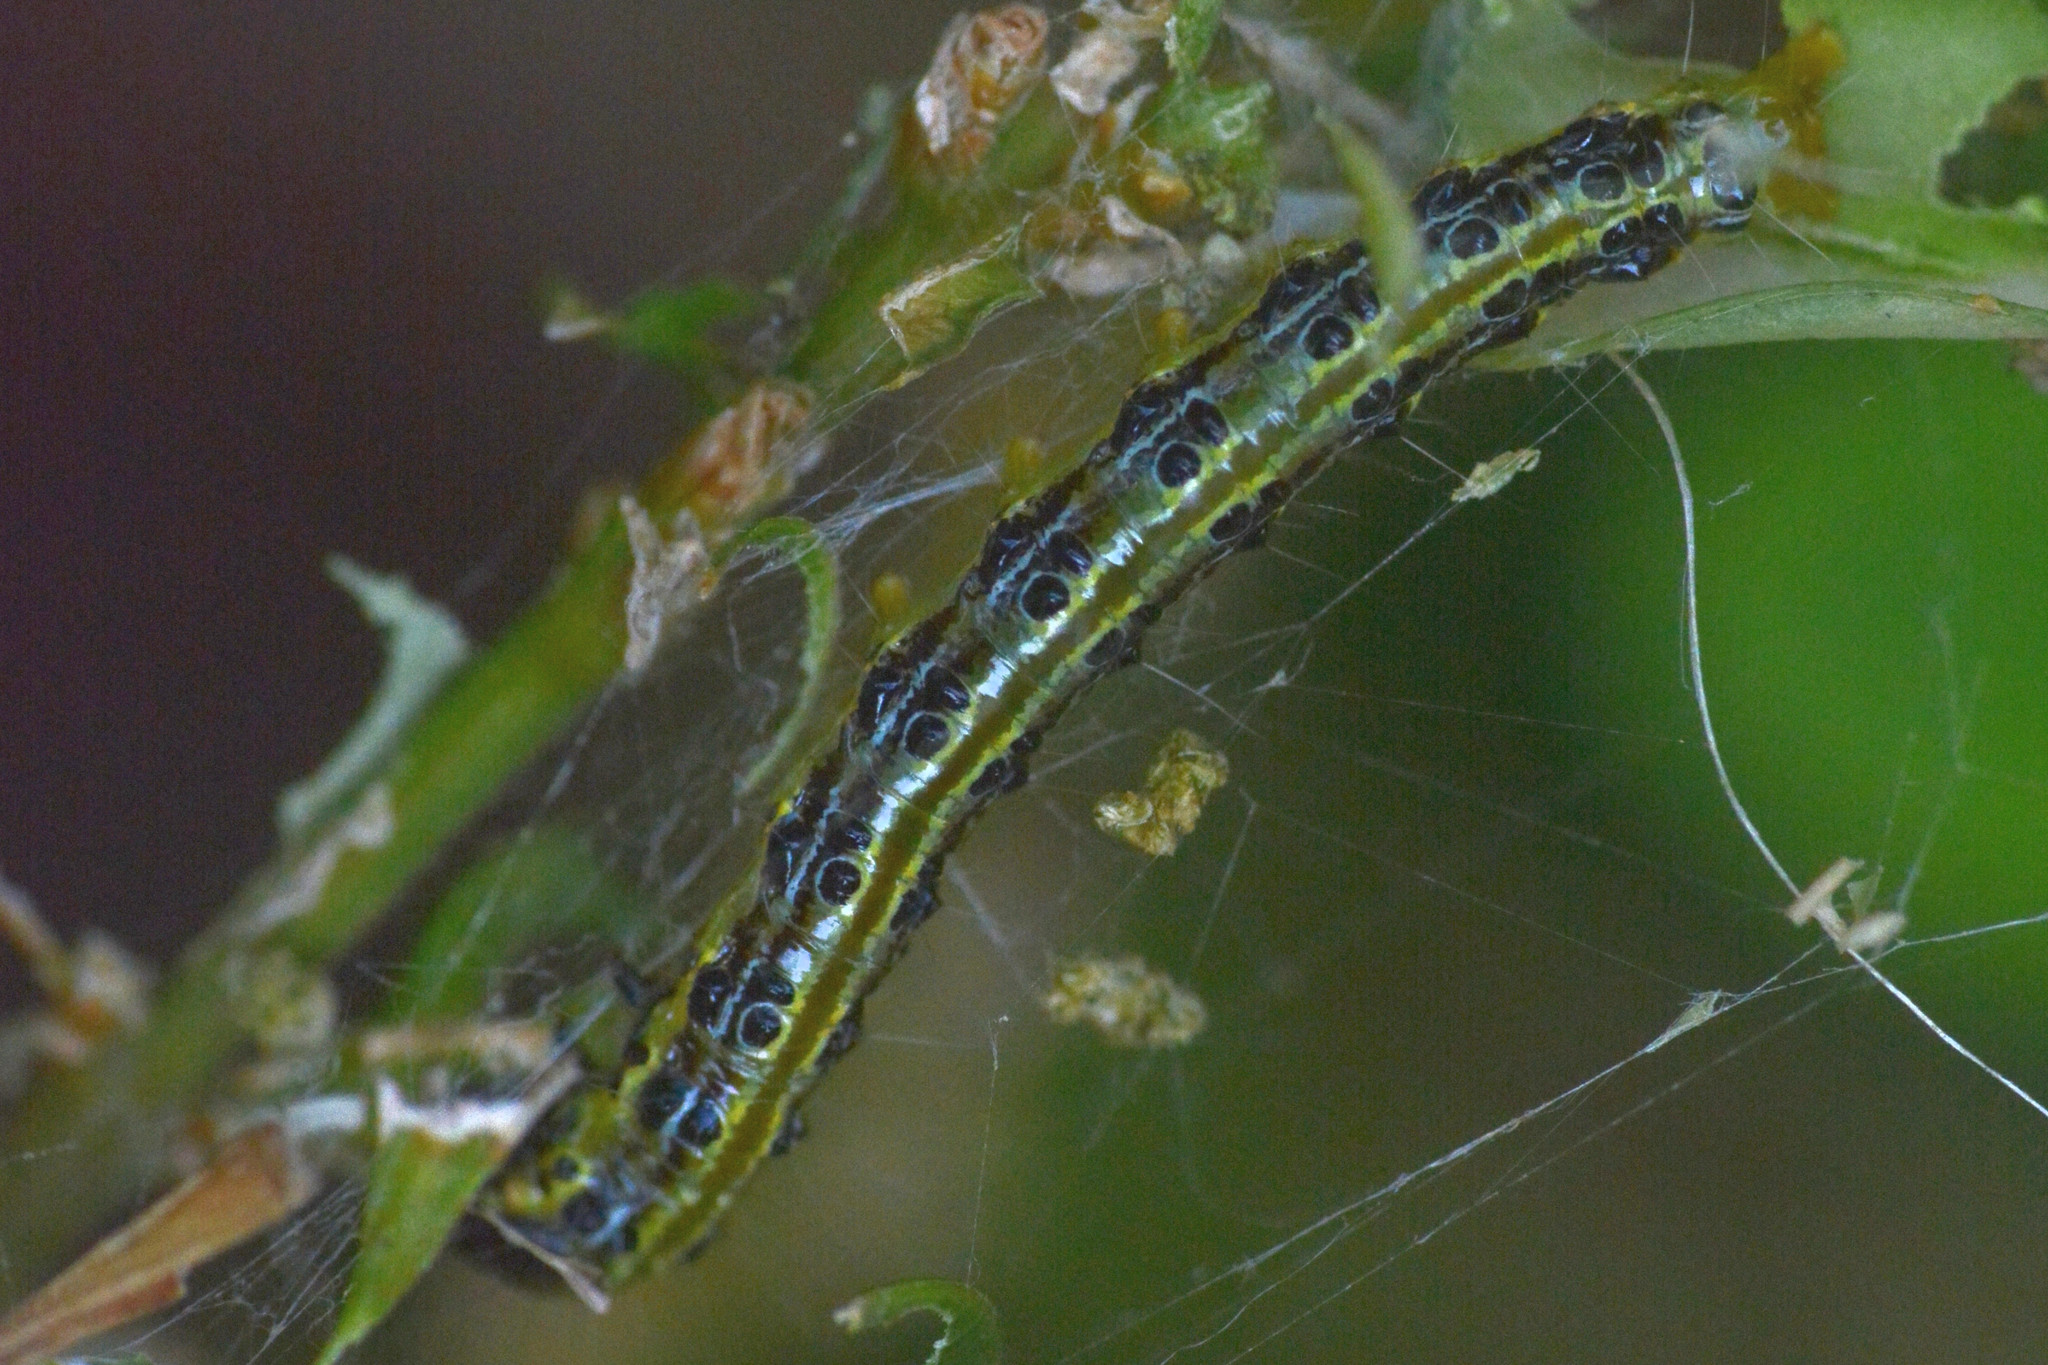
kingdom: Animalia
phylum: Arthropoda
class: Insecta
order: Lepidoptera
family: Crambidae
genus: Cydalima
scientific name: Cydalima perspectalis
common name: Box tree moth
